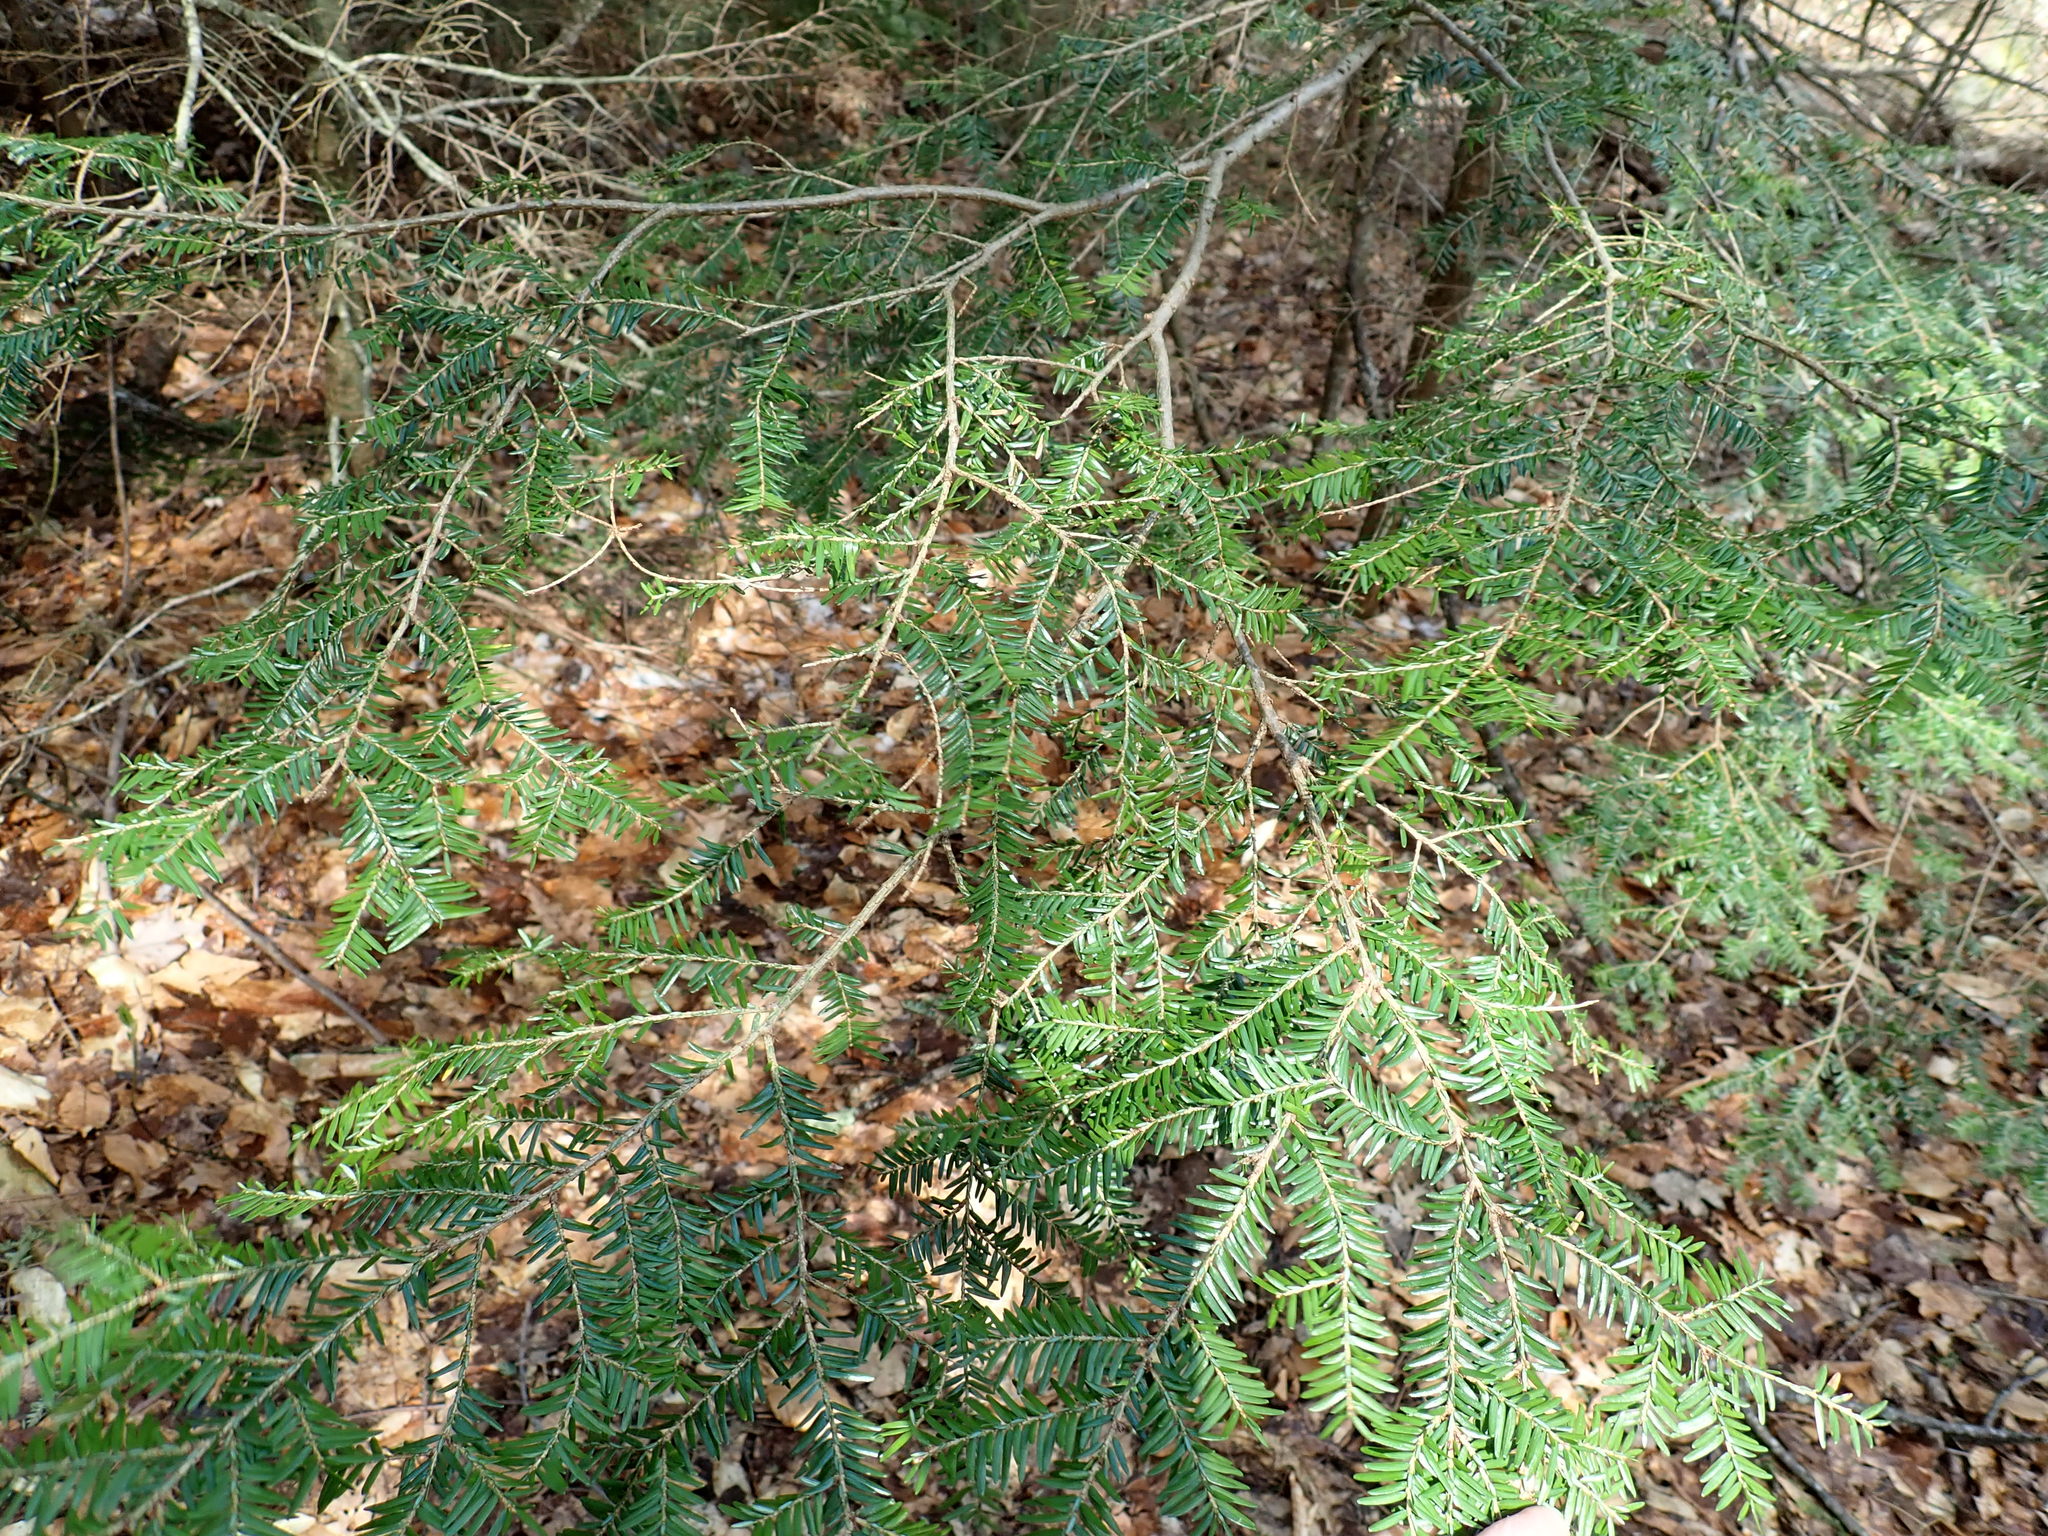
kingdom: Plantae
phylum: Tracheophyta
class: Pinopsida
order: Pinales
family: Pinaceae
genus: Tsuga
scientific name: Tsuga canadensis
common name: Eastern hemlock
